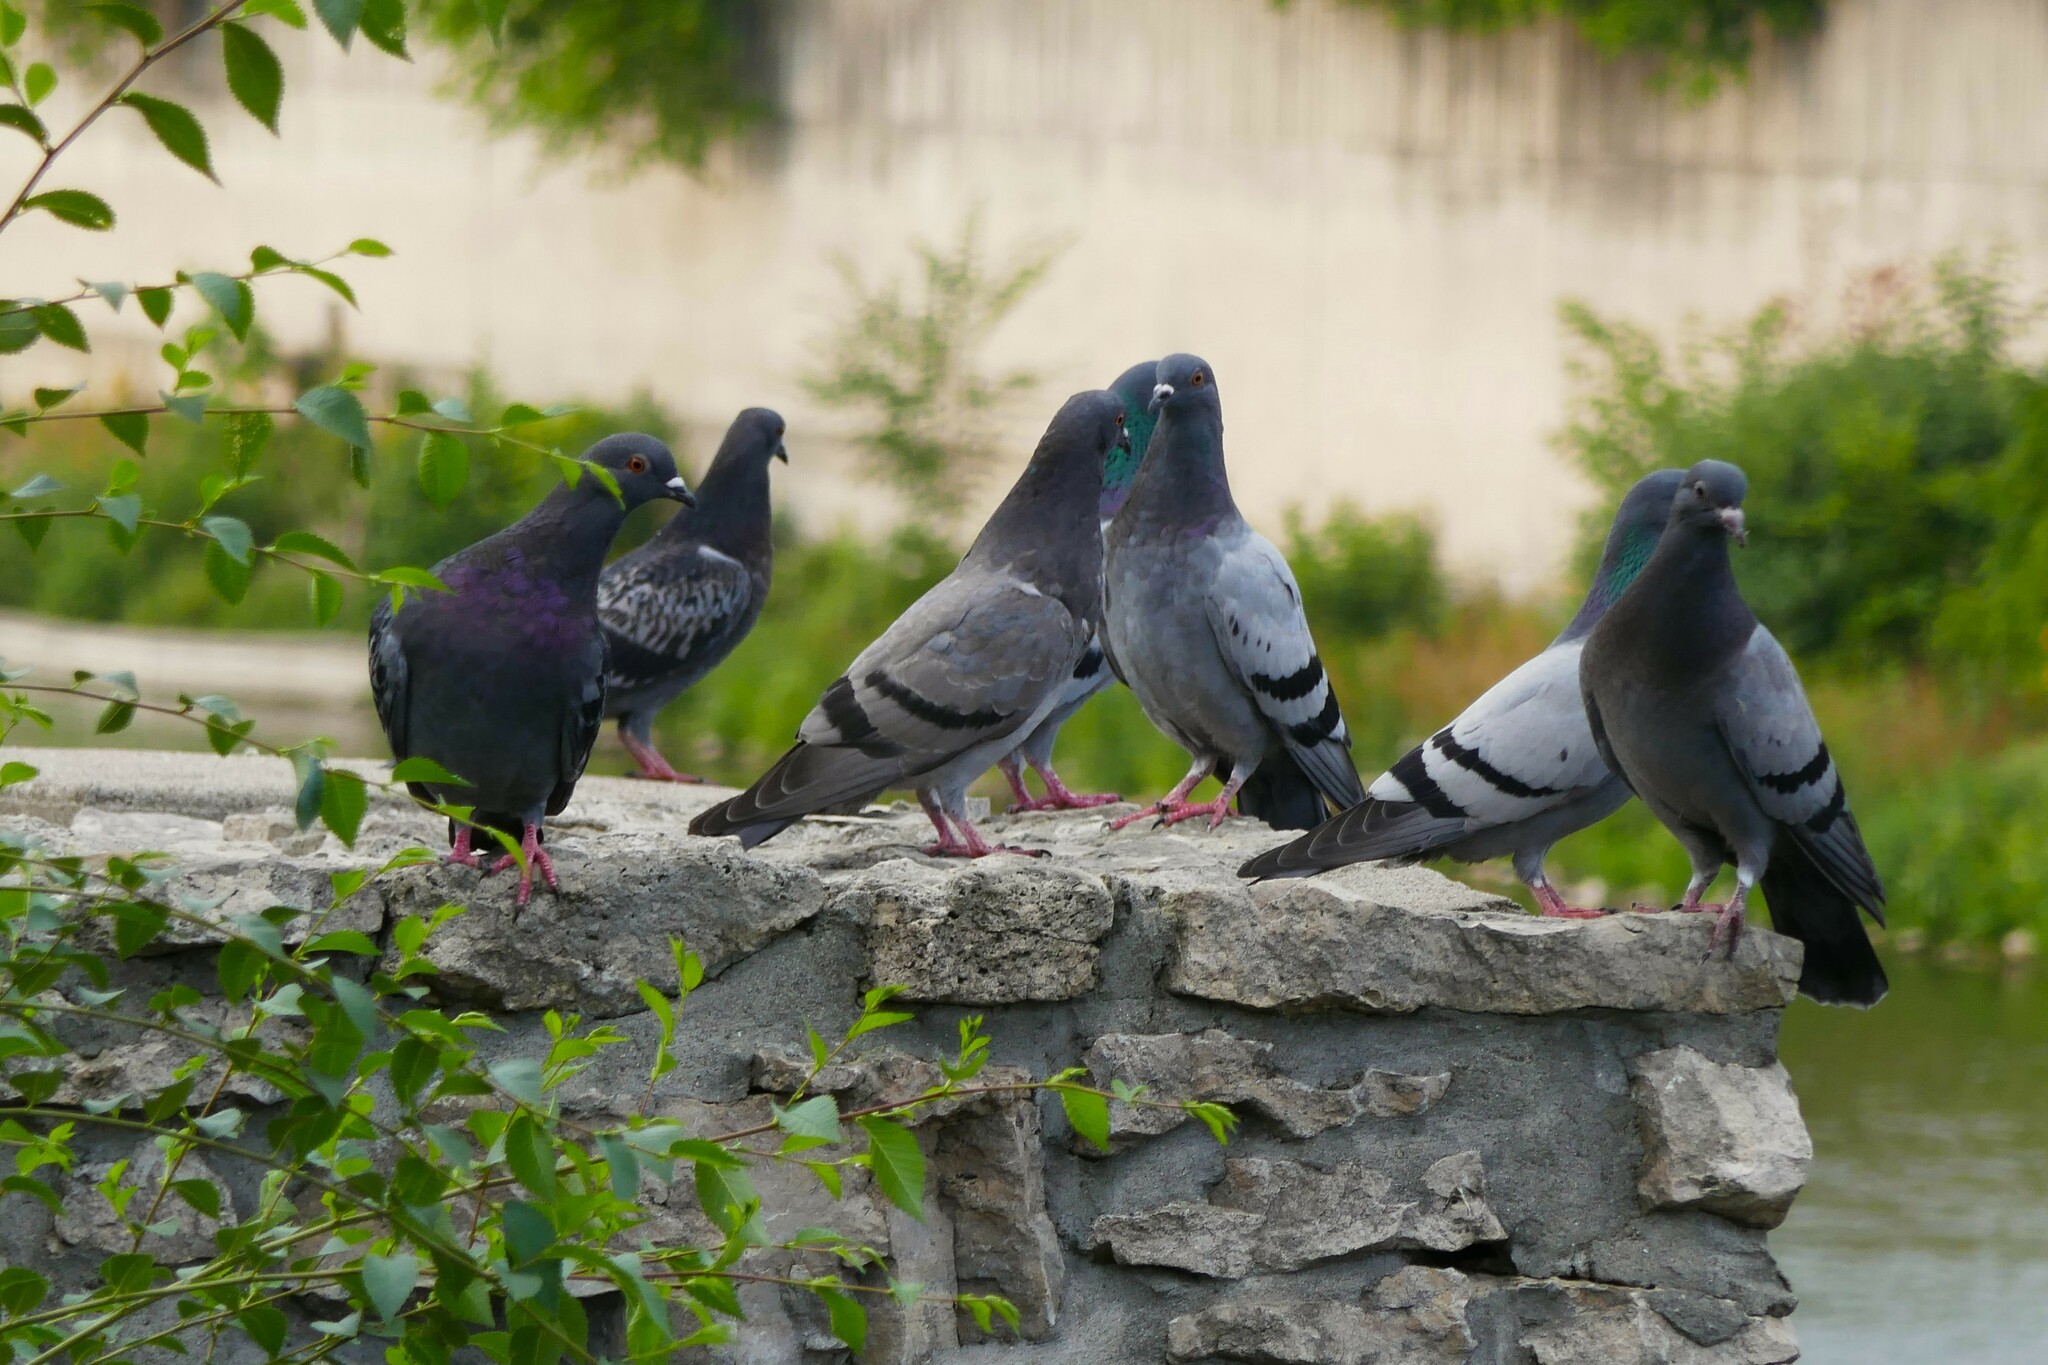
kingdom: Animalia
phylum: Chordata
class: Aves
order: Columbiformes
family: Columbidae
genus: Columba
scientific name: Columba livia
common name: Rock pigeon
